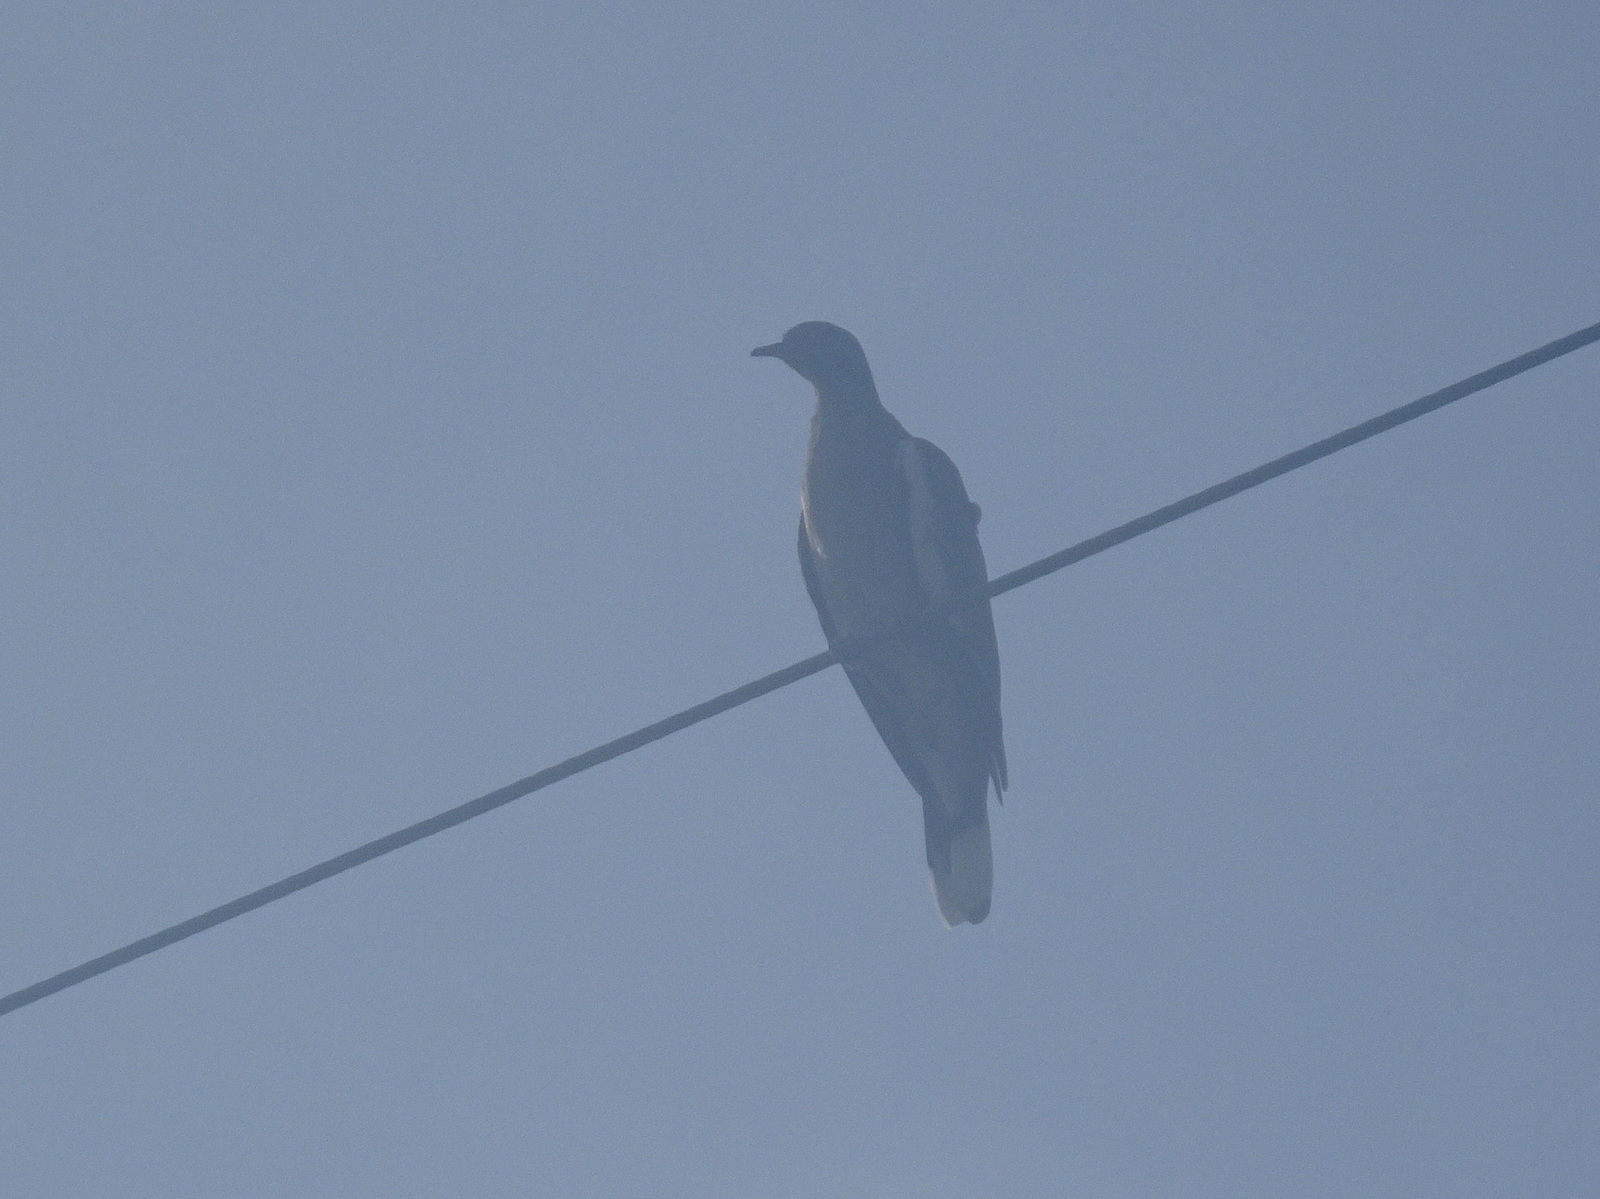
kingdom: Animalia
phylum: Chordata
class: Aves
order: Columbiformes
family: Columbidae
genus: Zenaida
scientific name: Zenaida asiatica
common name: White-winged dove
